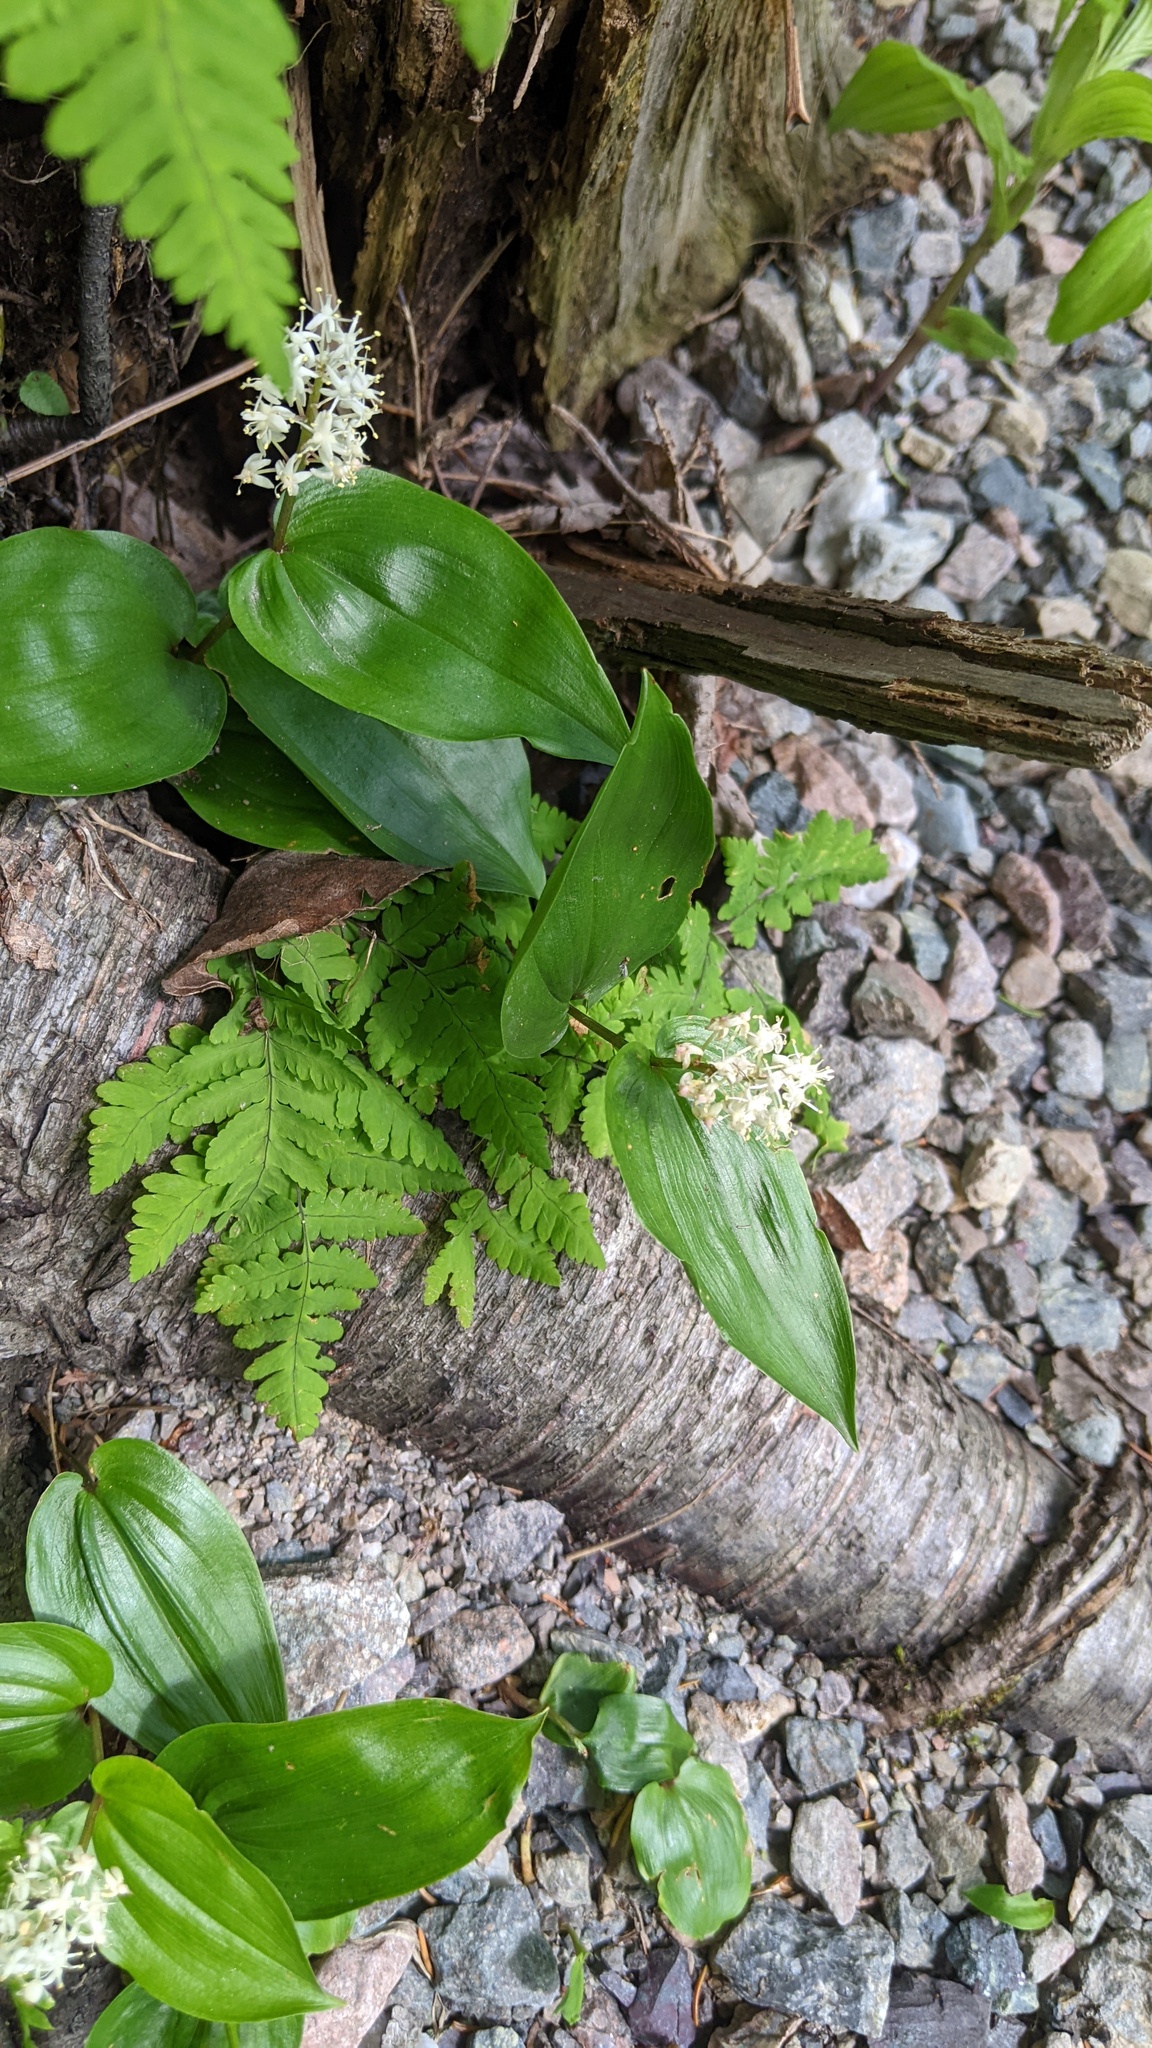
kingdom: Plantae
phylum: Tracheophyta
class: Liliopsida
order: Asparagales
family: Asparagaceae
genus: Maianthemum
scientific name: Maianthemum canadense
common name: False lily-of-the-valley
